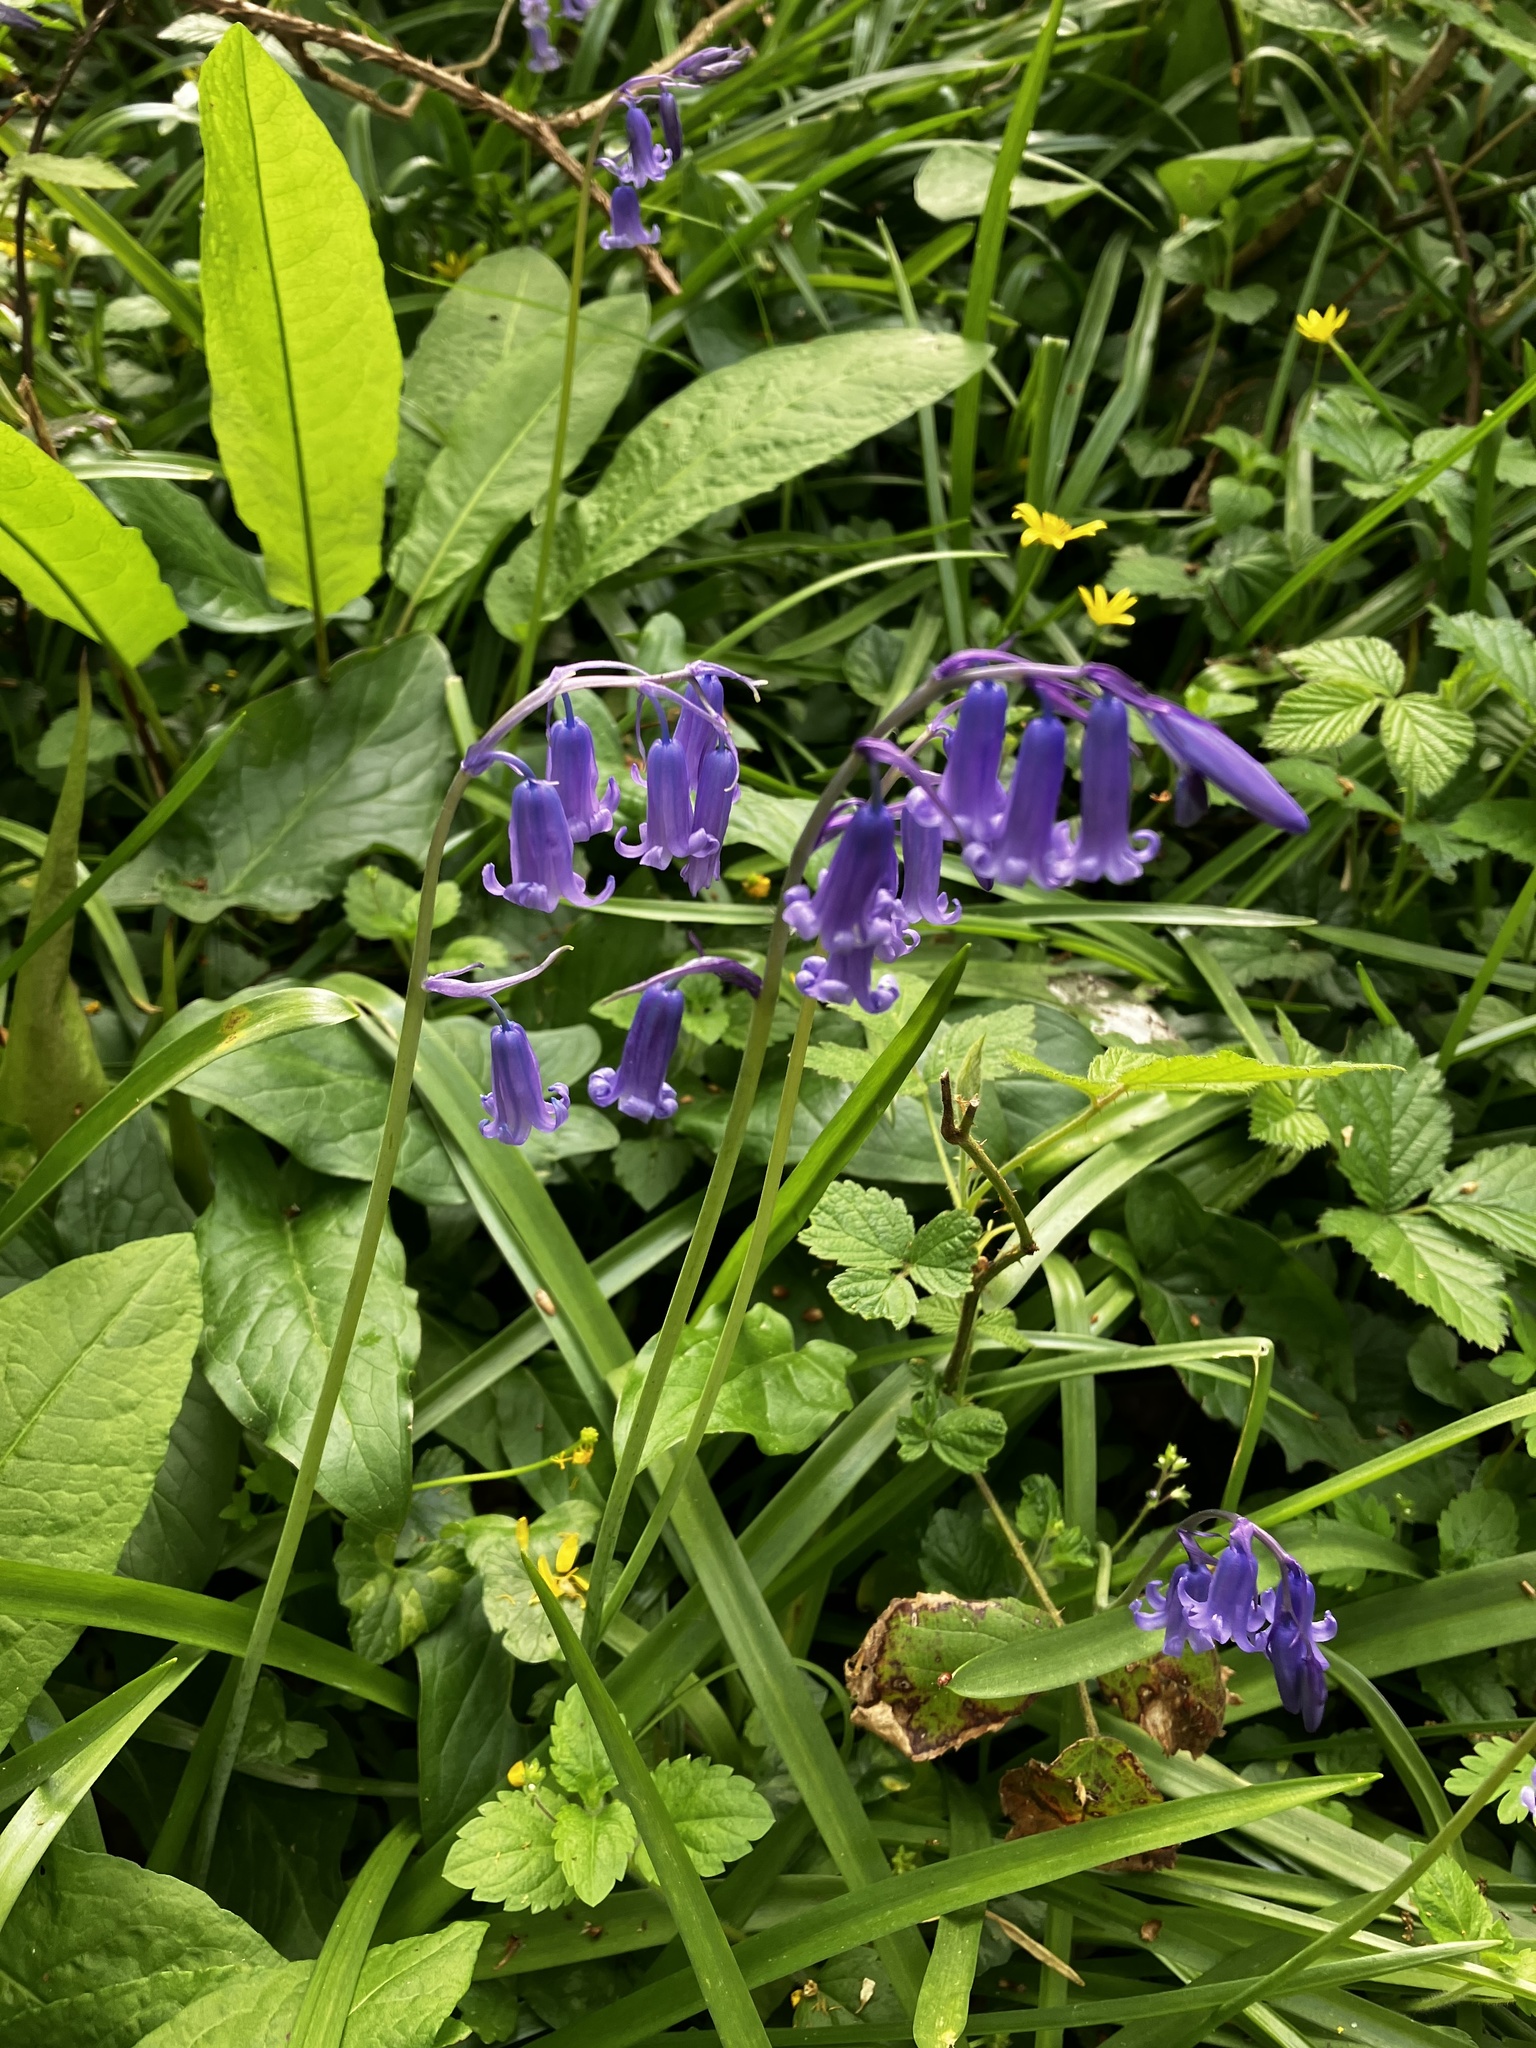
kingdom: Plantae
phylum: Tracheophyta
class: Liliopsida
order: Asparagales
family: Asparagaceae
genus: Hyacinthoides
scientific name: Hyacinthoides non-scripta
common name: Bluebell
